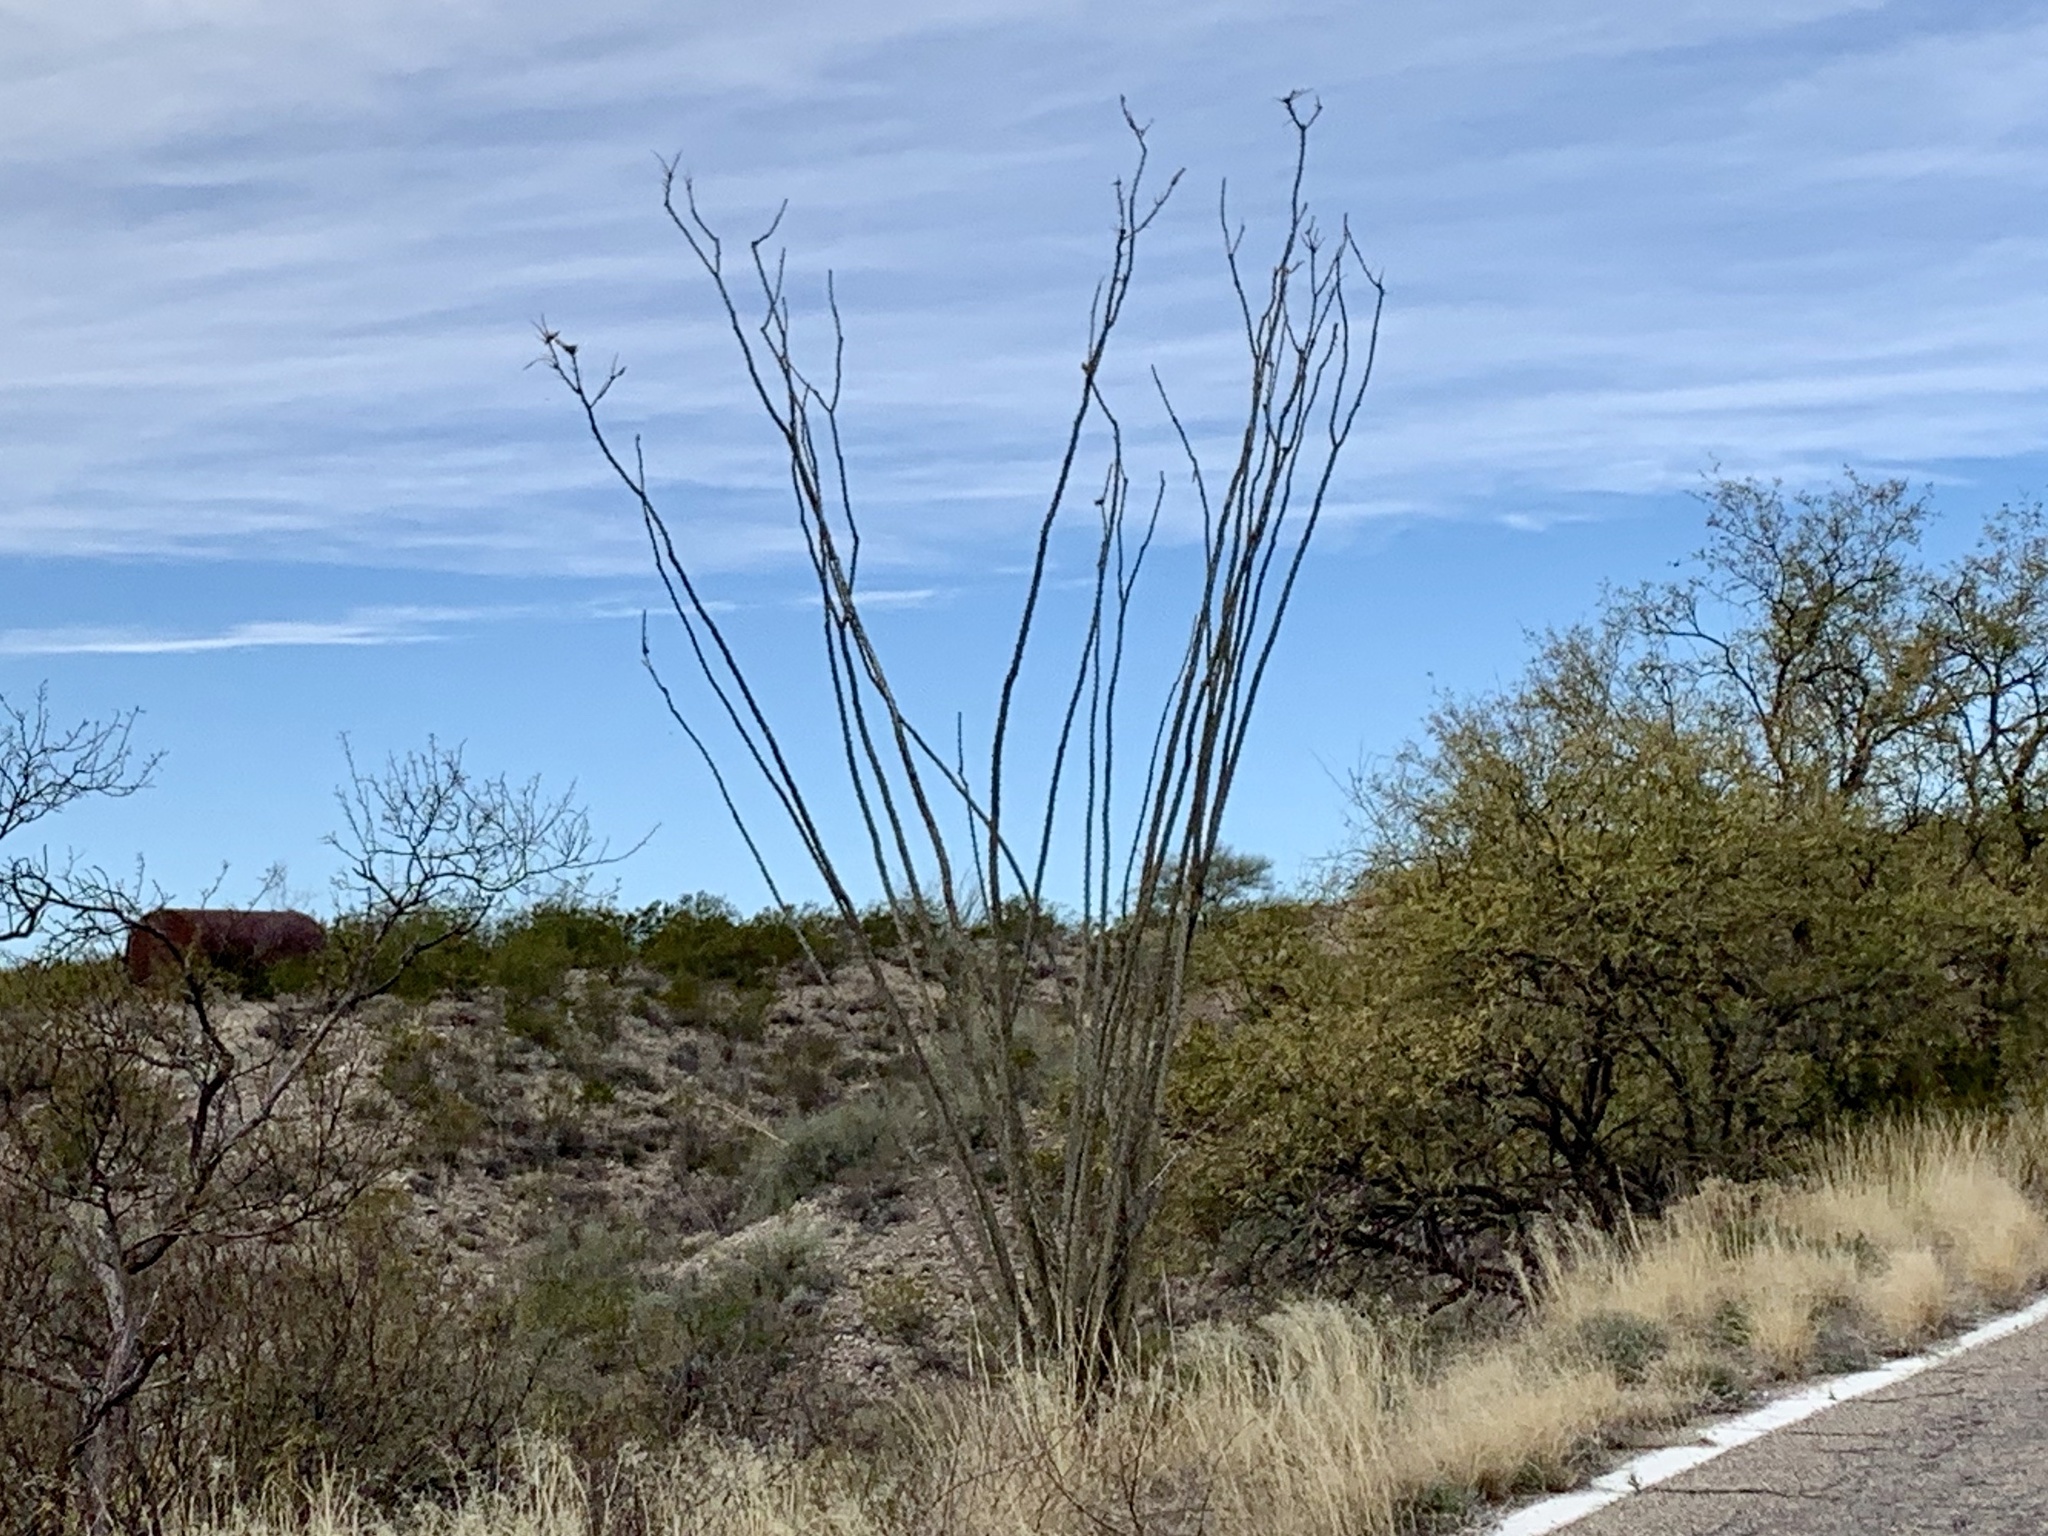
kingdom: Plantae
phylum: Tracheophyta
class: Magnoliopsida
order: Ericales
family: Fouquieriaceae
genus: Fouquieria
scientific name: Fouquieria splendens
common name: Vine-cactus
